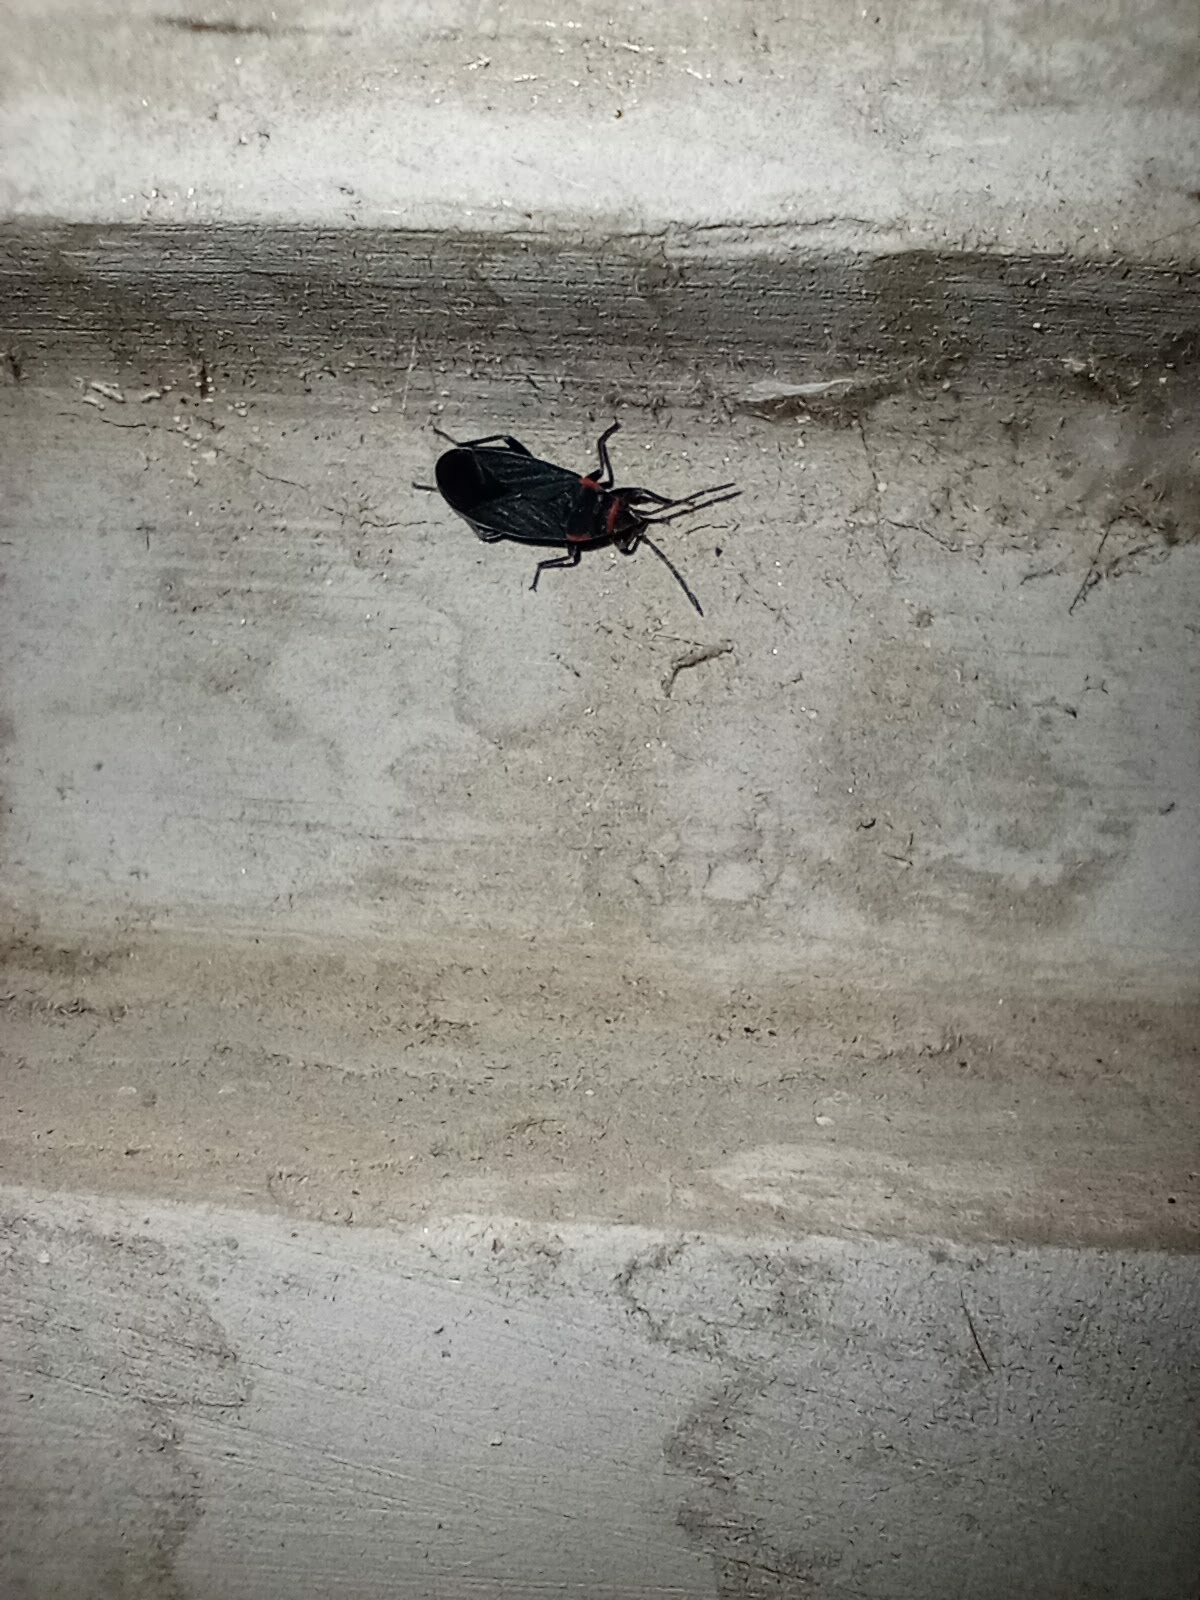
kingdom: Animalia
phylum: Arthropoda
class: Insecta
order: Hemiptera
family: Lygaeidae
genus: Melacoryphus
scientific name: Melacoryphus rubicollis
